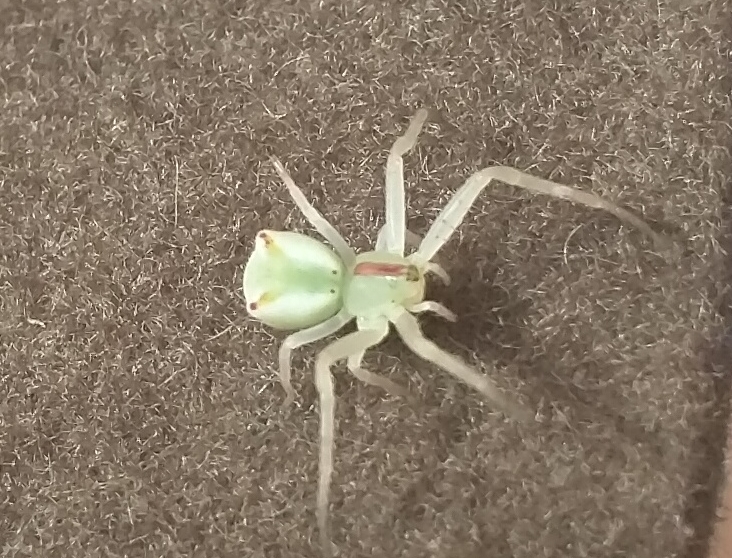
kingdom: Animalia
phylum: Arthropoda
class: Arachnida
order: Araneae
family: Thomisidae
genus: Sidymella
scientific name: Sidymella rubrosignata
